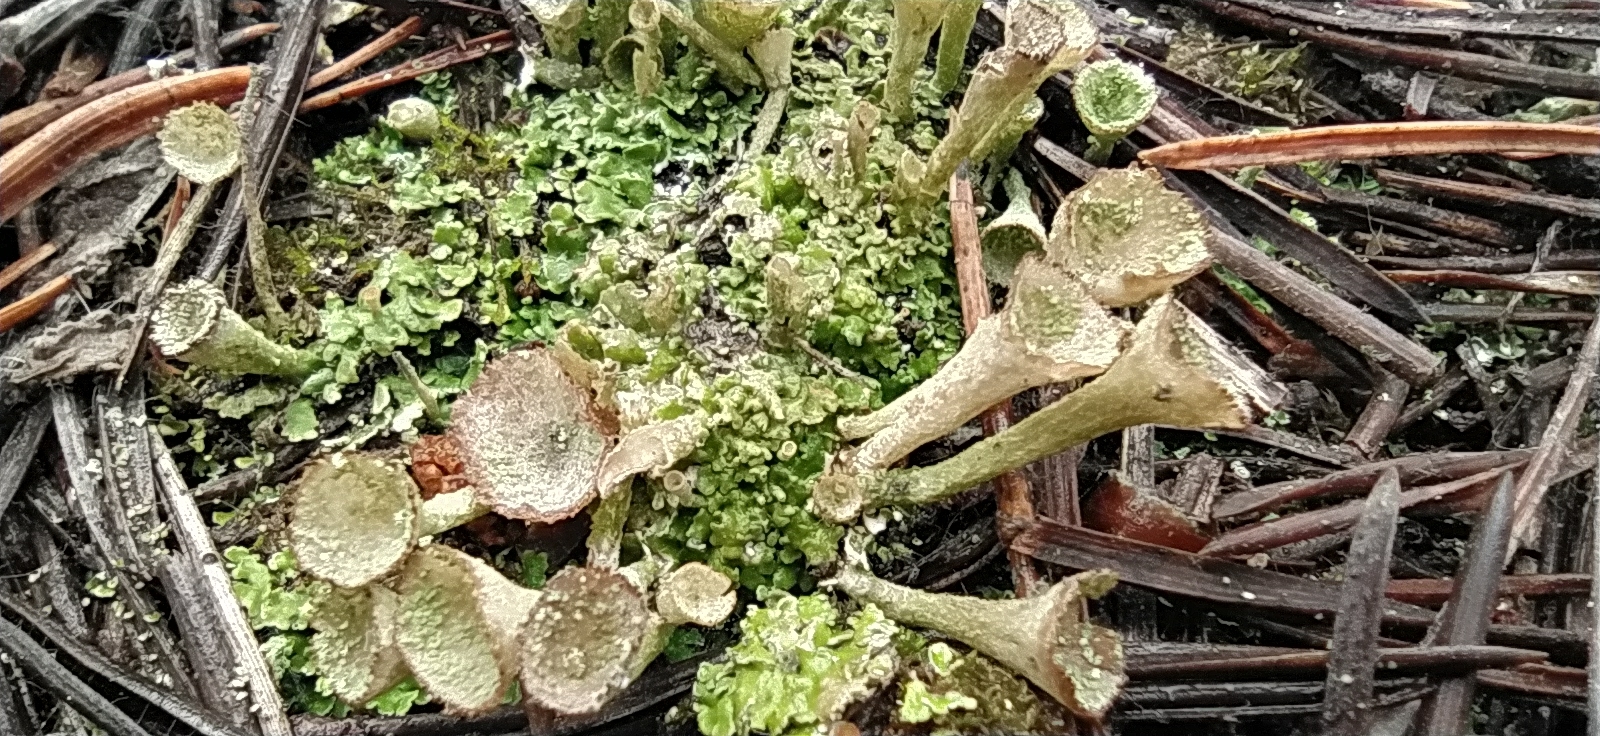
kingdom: Fungi
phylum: Ascomycota
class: Lecanoromycetes
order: Lecanorales
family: Cladoniaceae
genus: Cladonia
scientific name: Cladonia pyxidata
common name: Pebbled pixie cup
